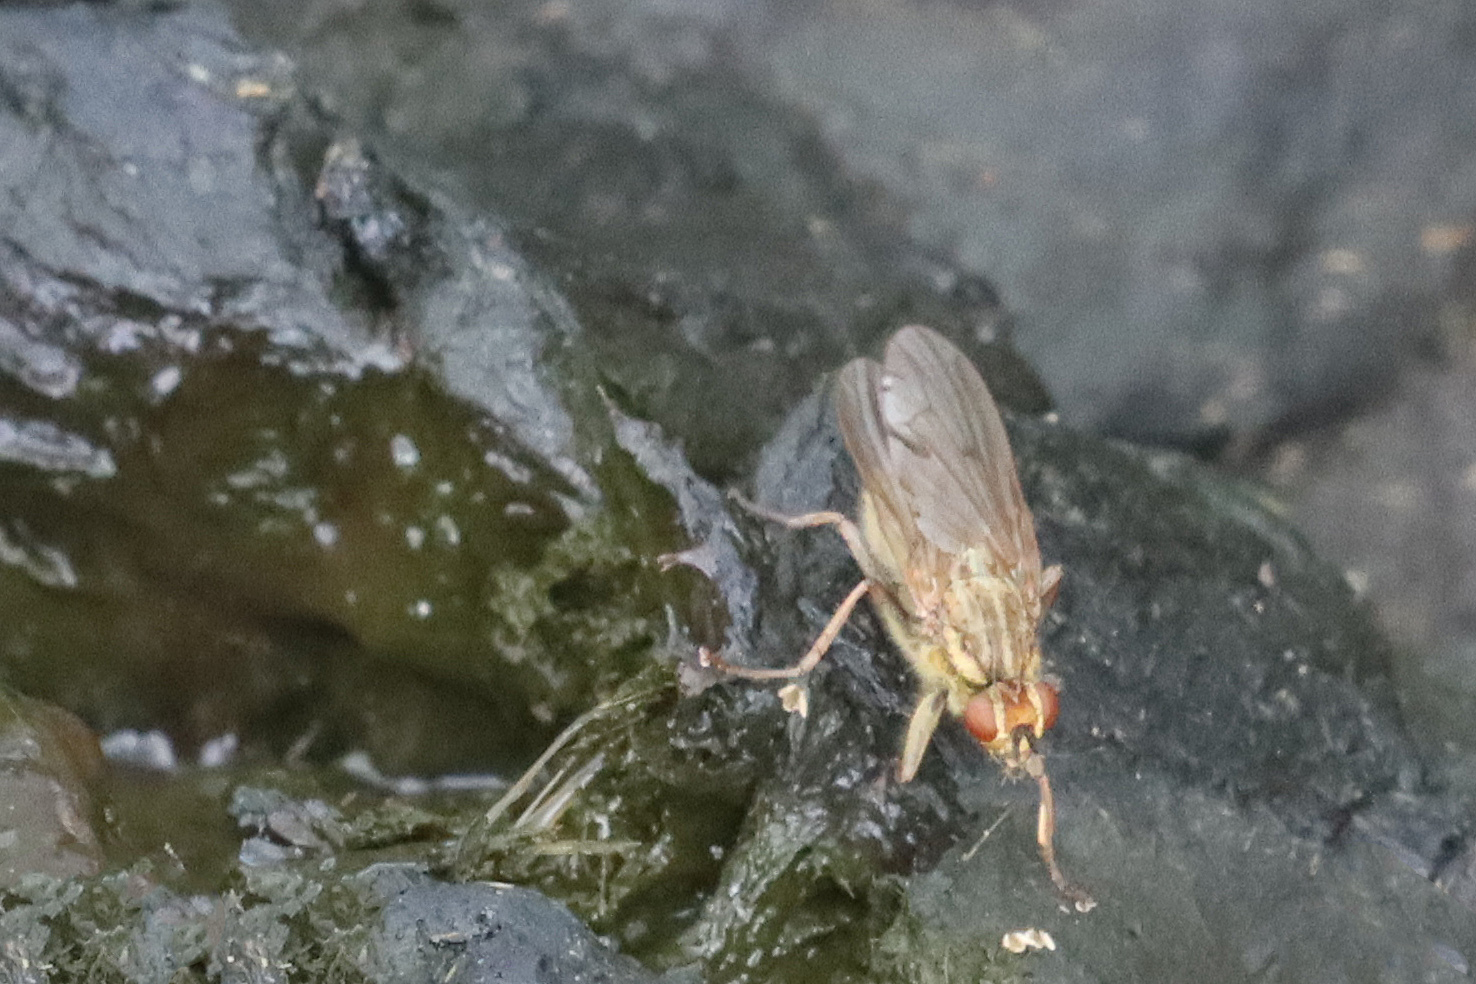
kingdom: Animalia
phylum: Arthropoda
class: Insecta
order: Diptera
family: Scathophagidae
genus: Scathophaga
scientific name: Scathophaga stercoraria
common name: Yellow dung fly
